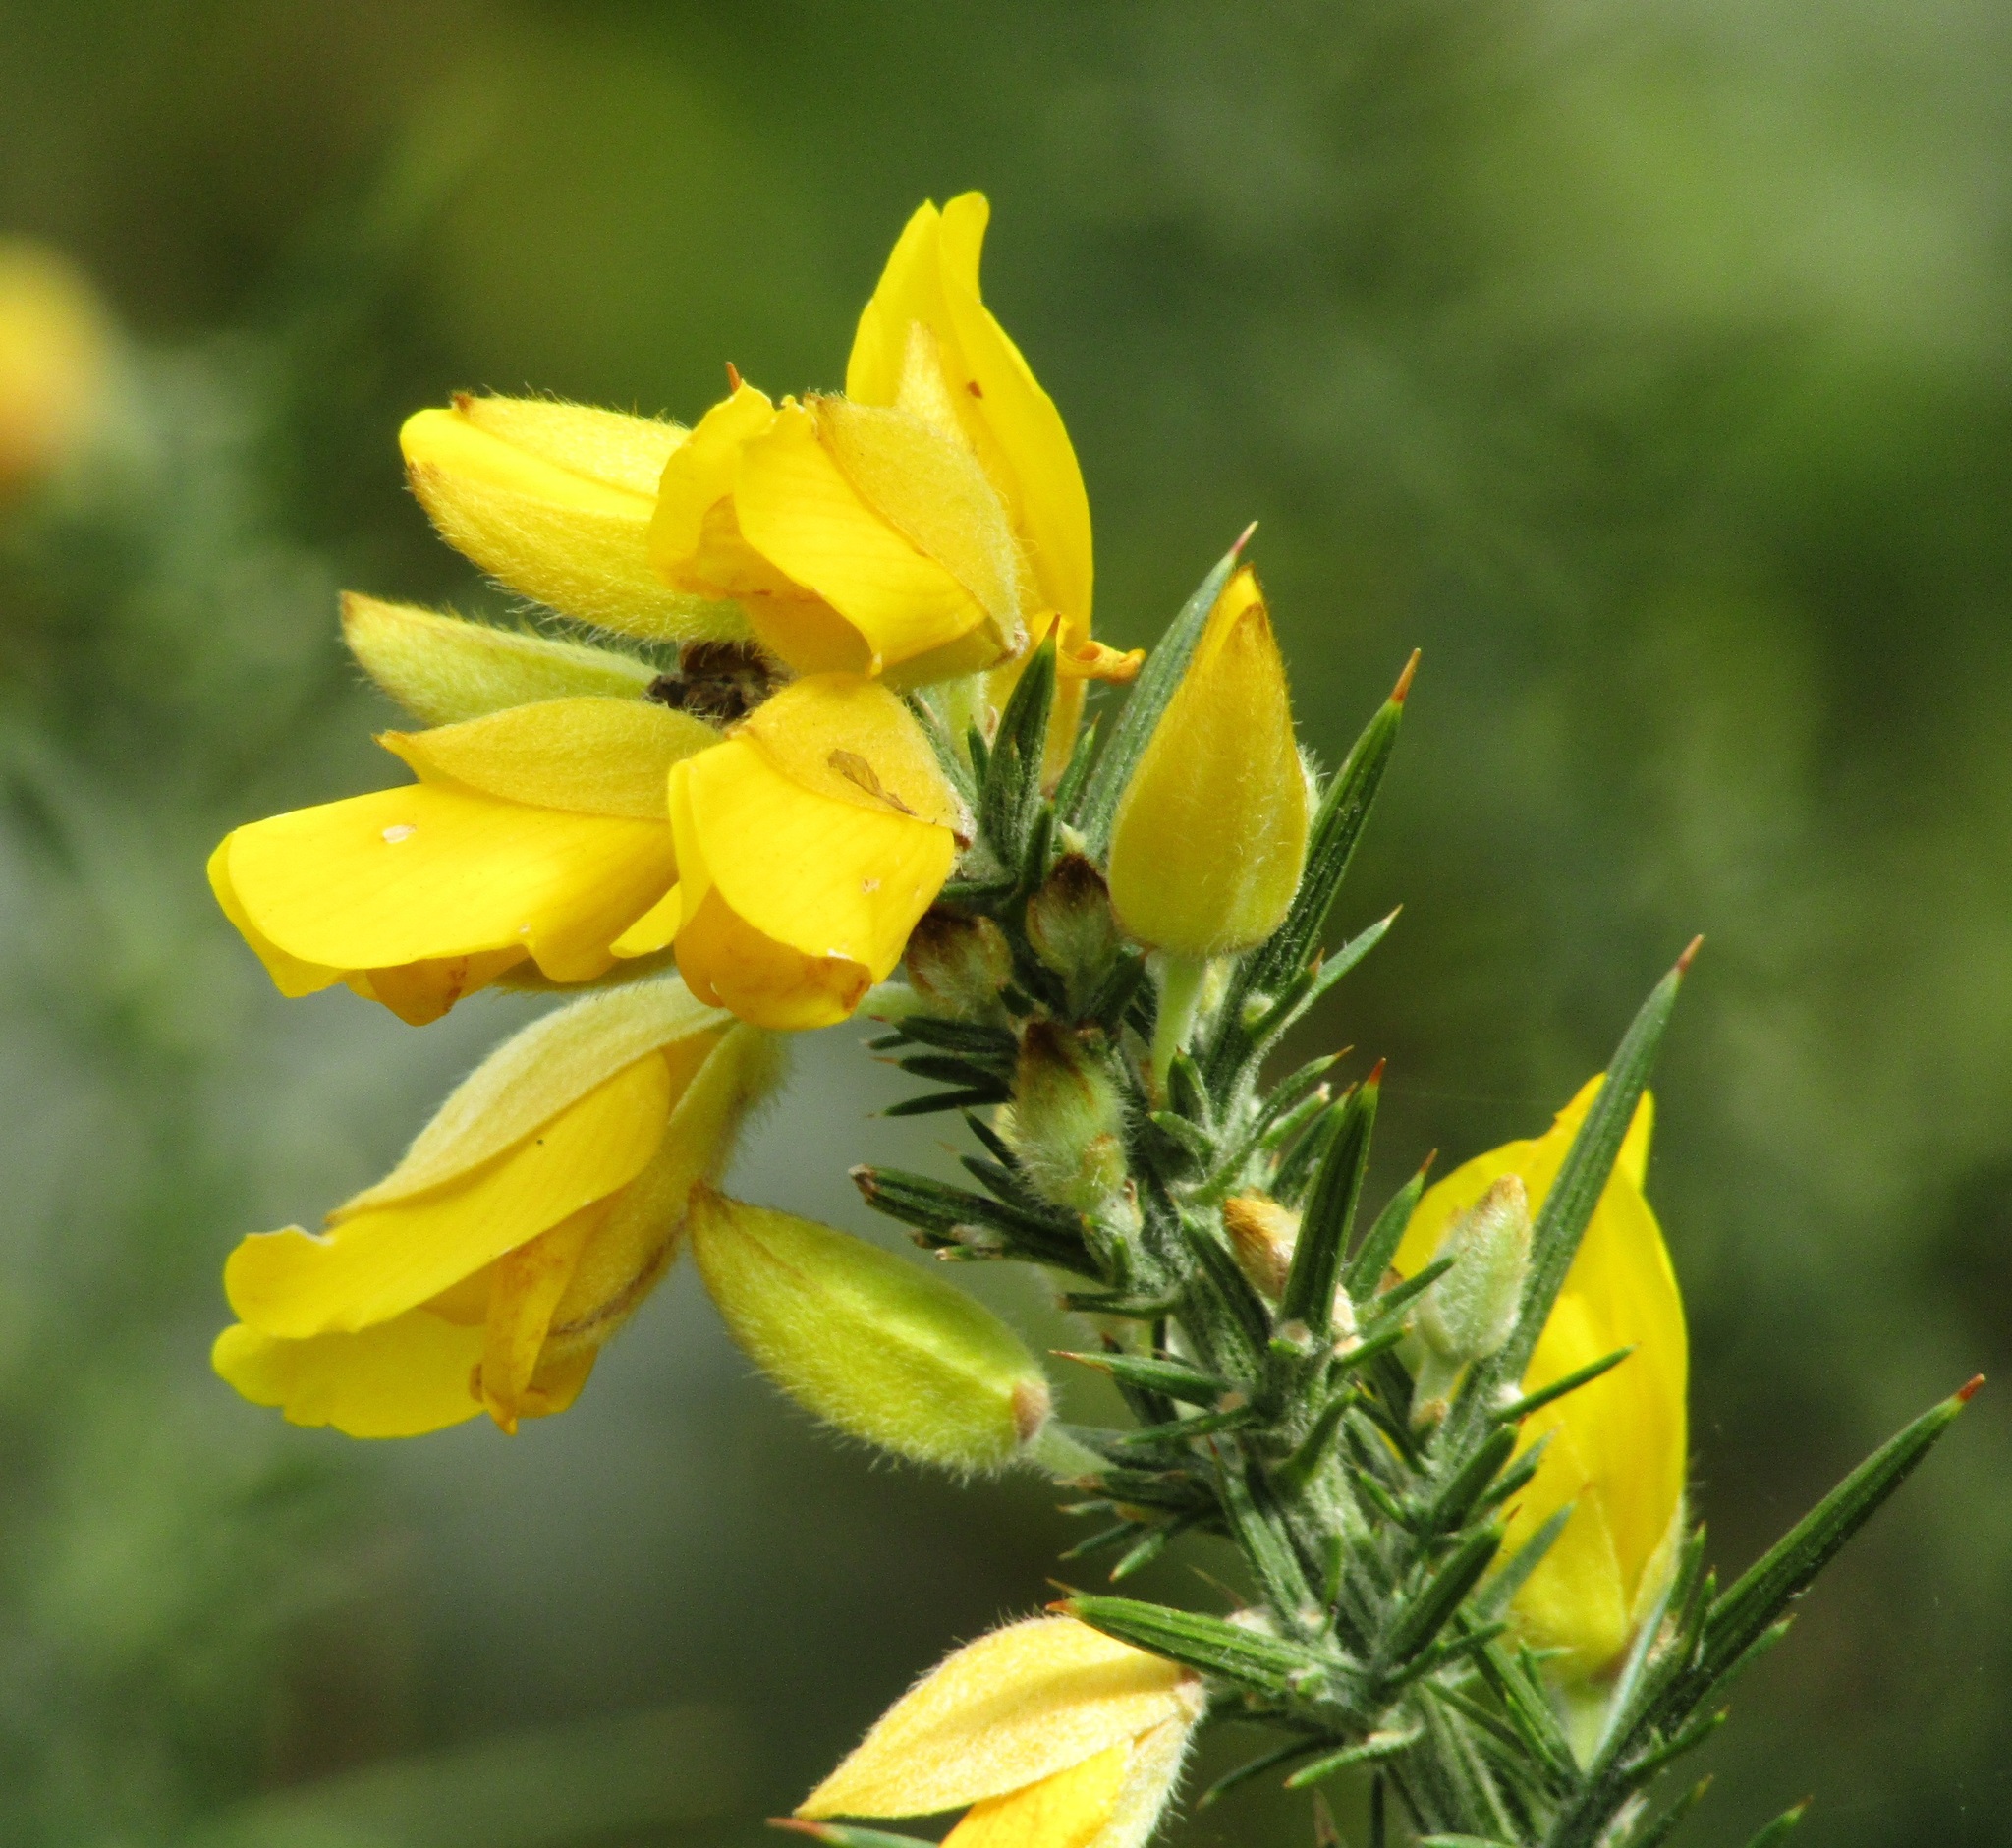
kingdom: Plantae
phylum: Tracheophyta
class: Magnoliopsida
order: Fabales
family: Fabaceae
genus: Ulex
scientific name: Ulex europaeus
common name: Common gorse
